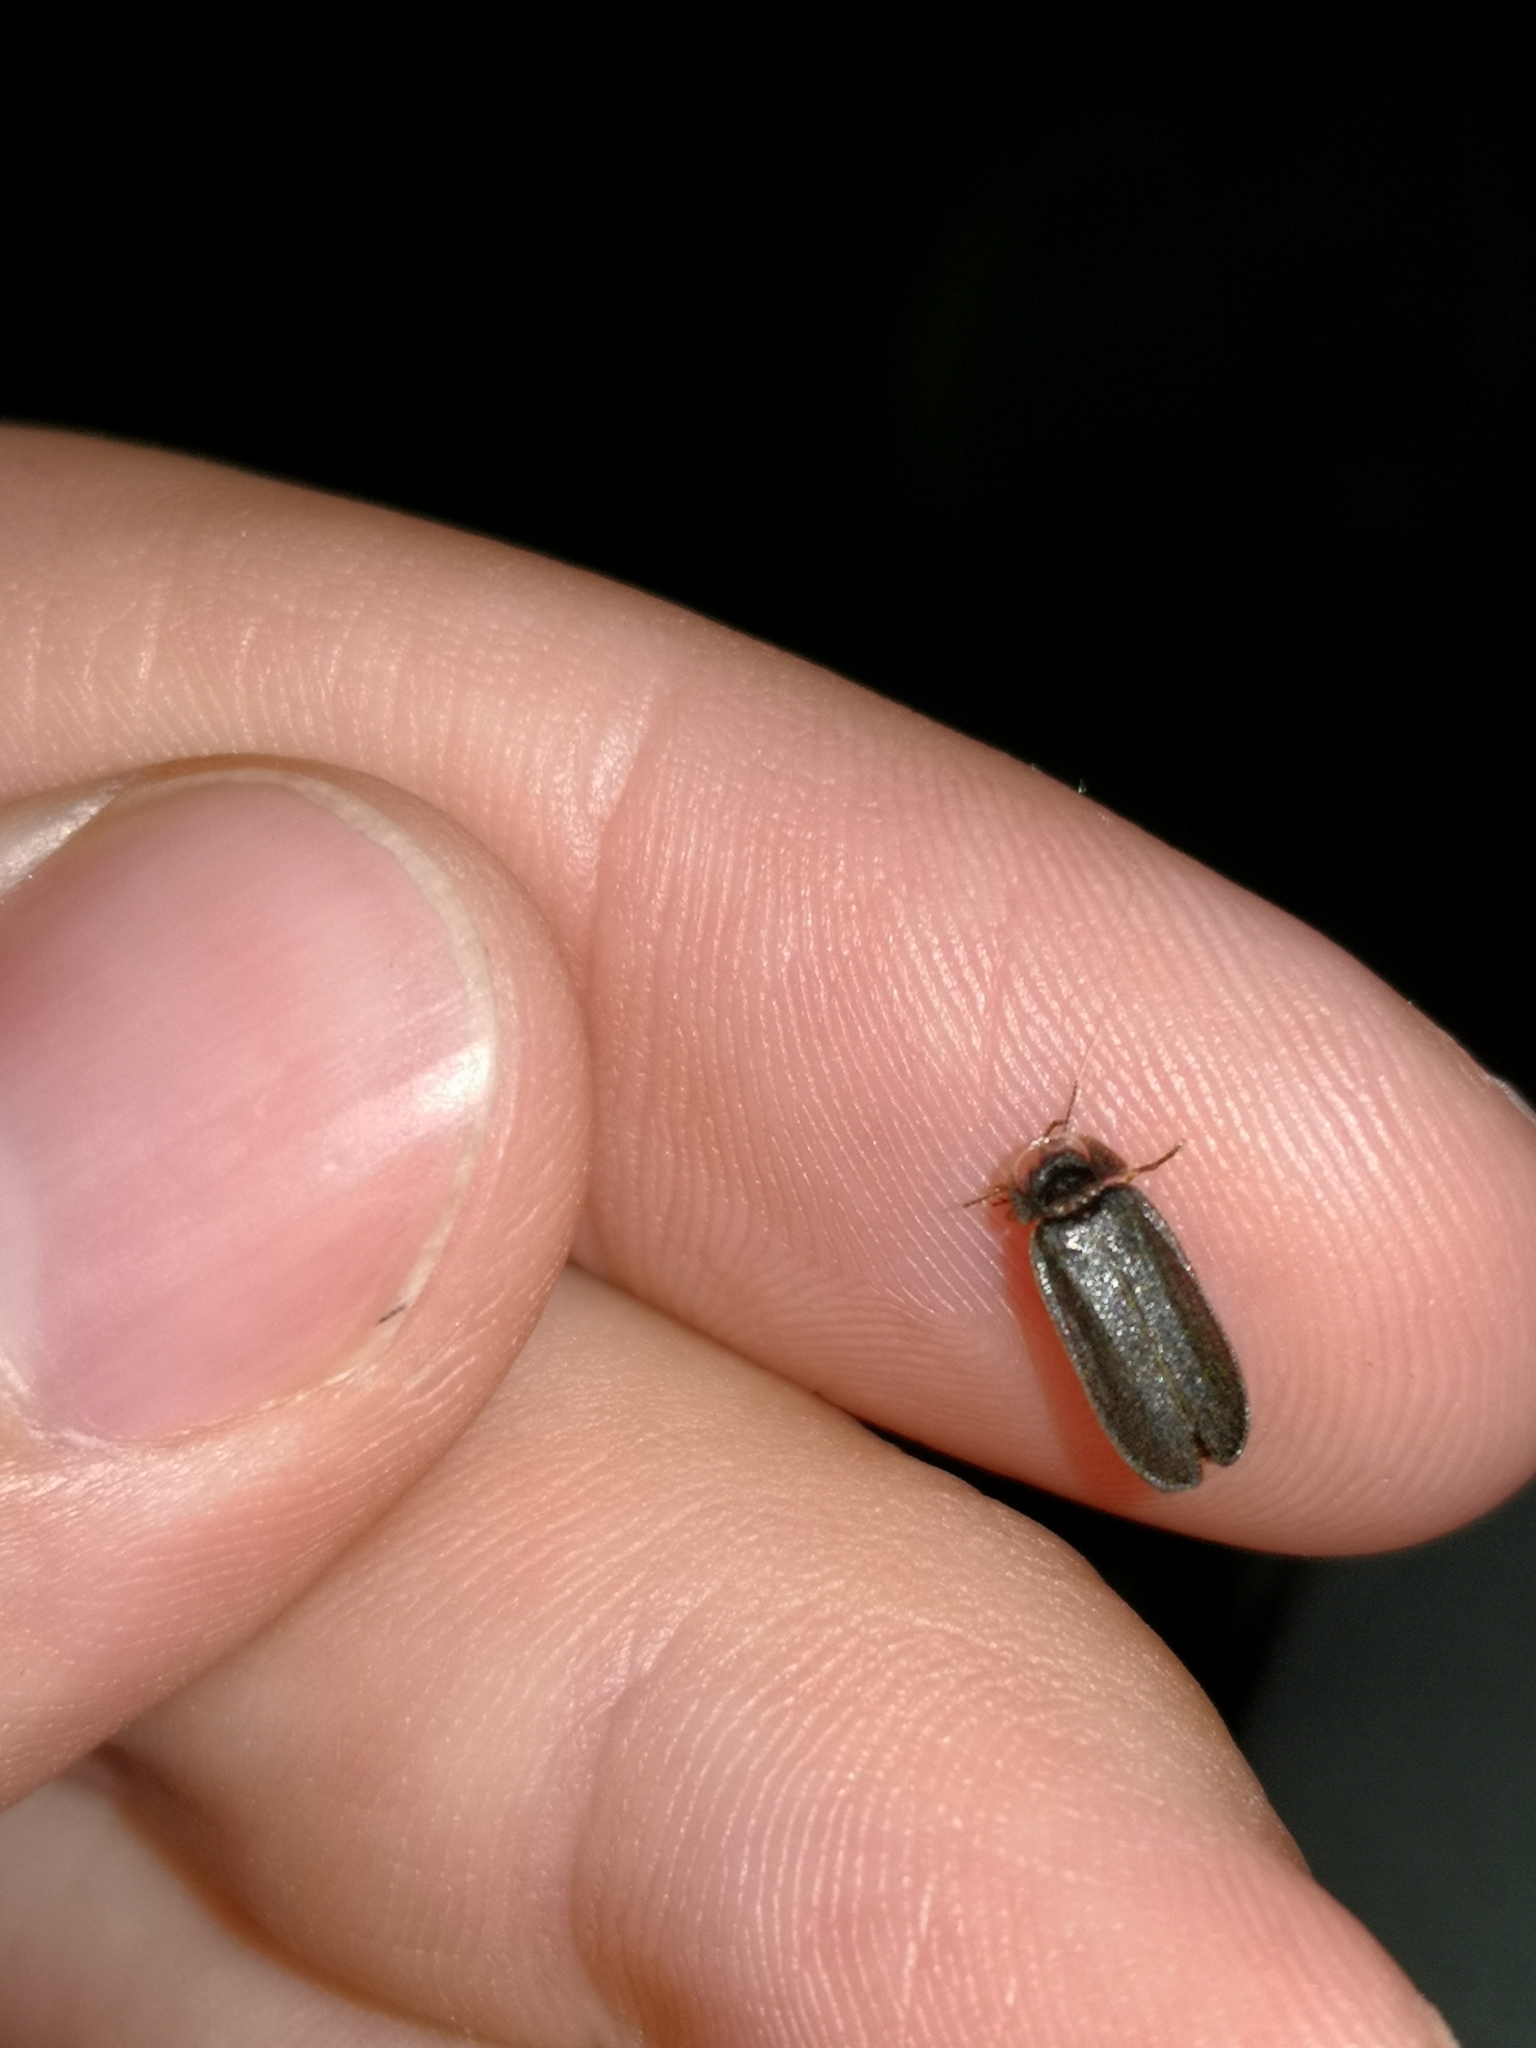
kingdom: Animalia
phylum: Arthropoda
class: Insecta
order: Coleoptera
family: Lampyridae
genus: Lamprohiza
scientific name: Lamprohiza splendidula
